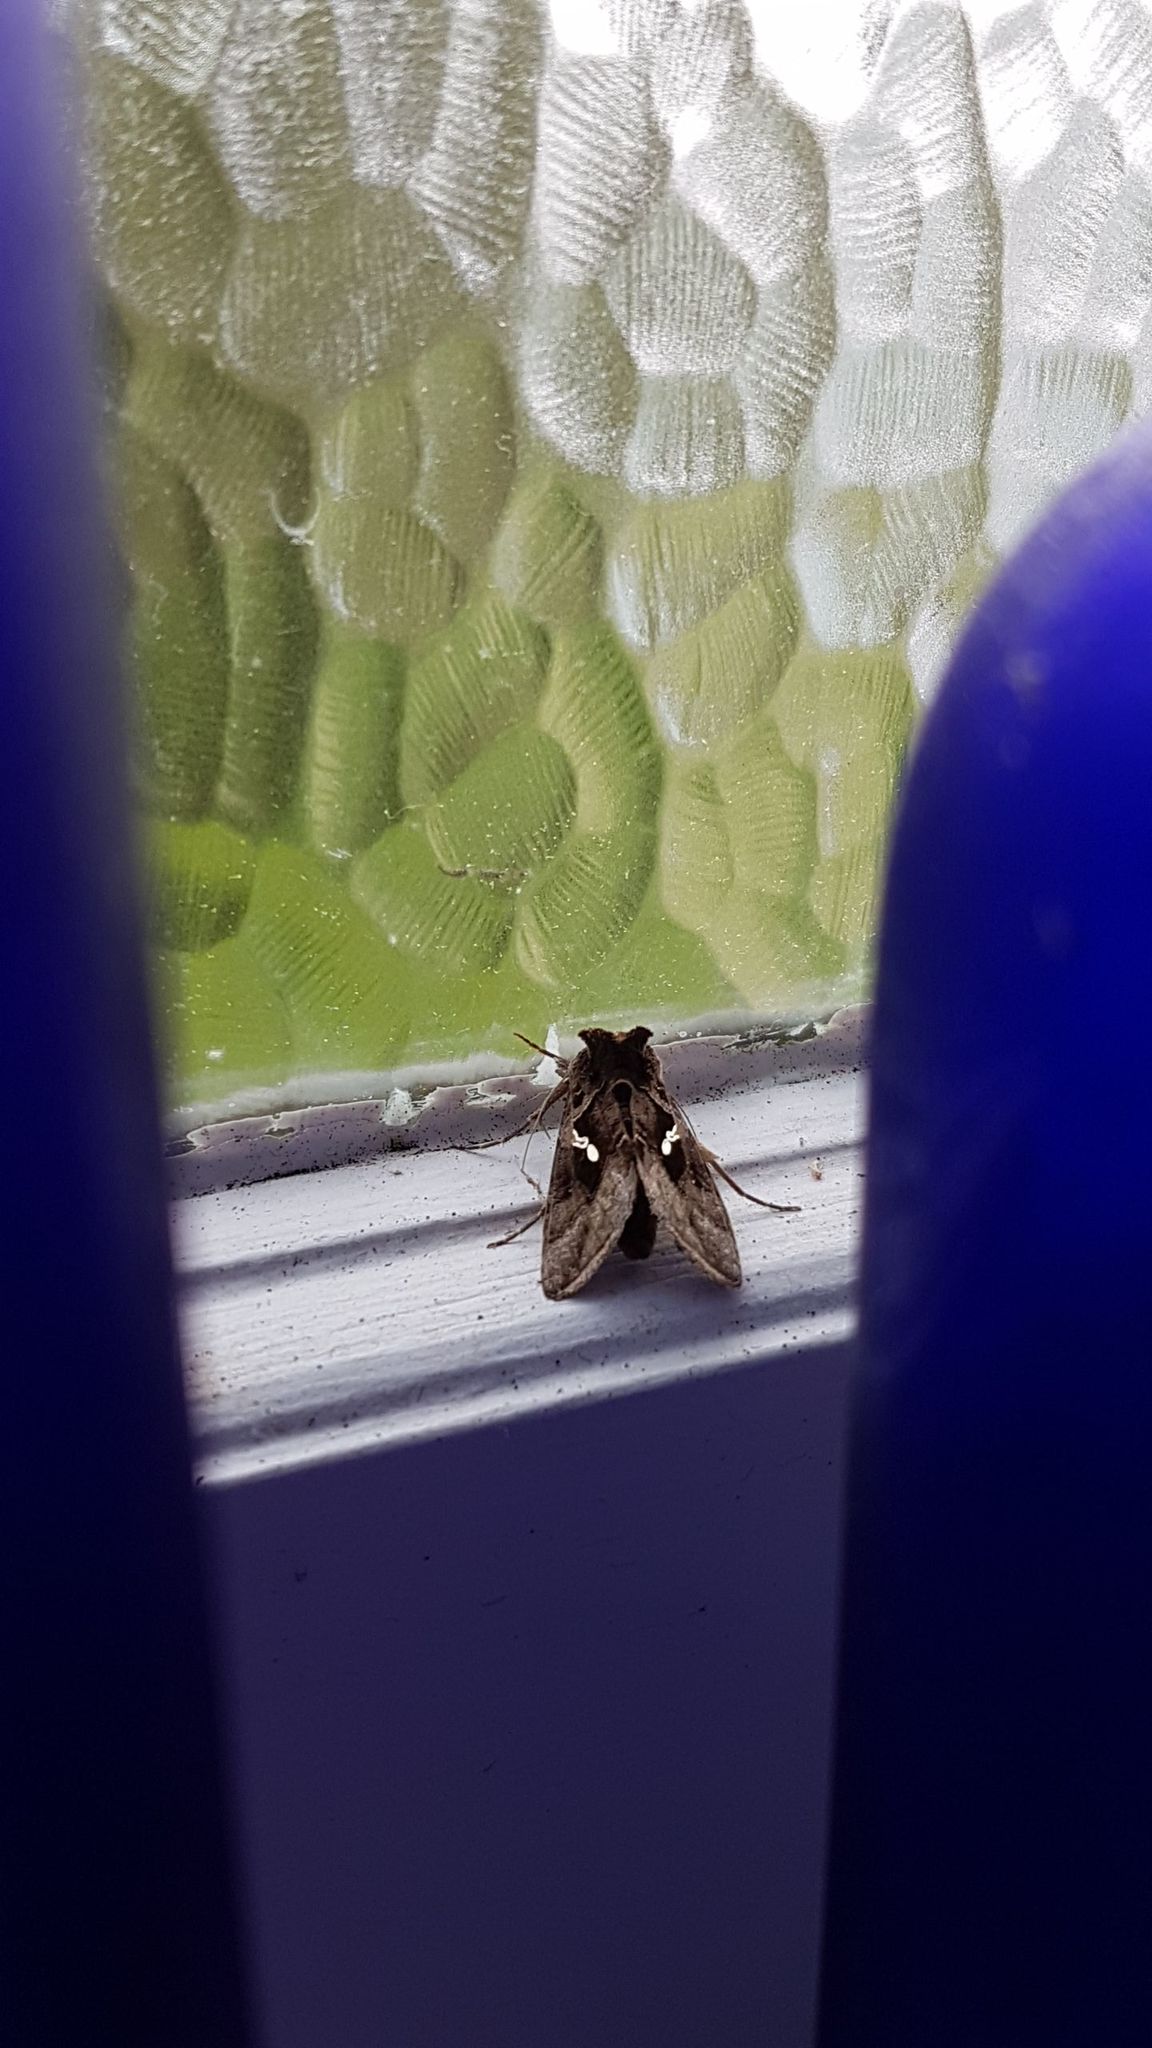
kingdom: Animalia
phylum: Arthropoda
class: Insecta
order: Lepidoptera
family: Noctuidae
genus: Chrysodeixis
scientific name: Chrysodeixis eriosoma
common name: Green garden looper
